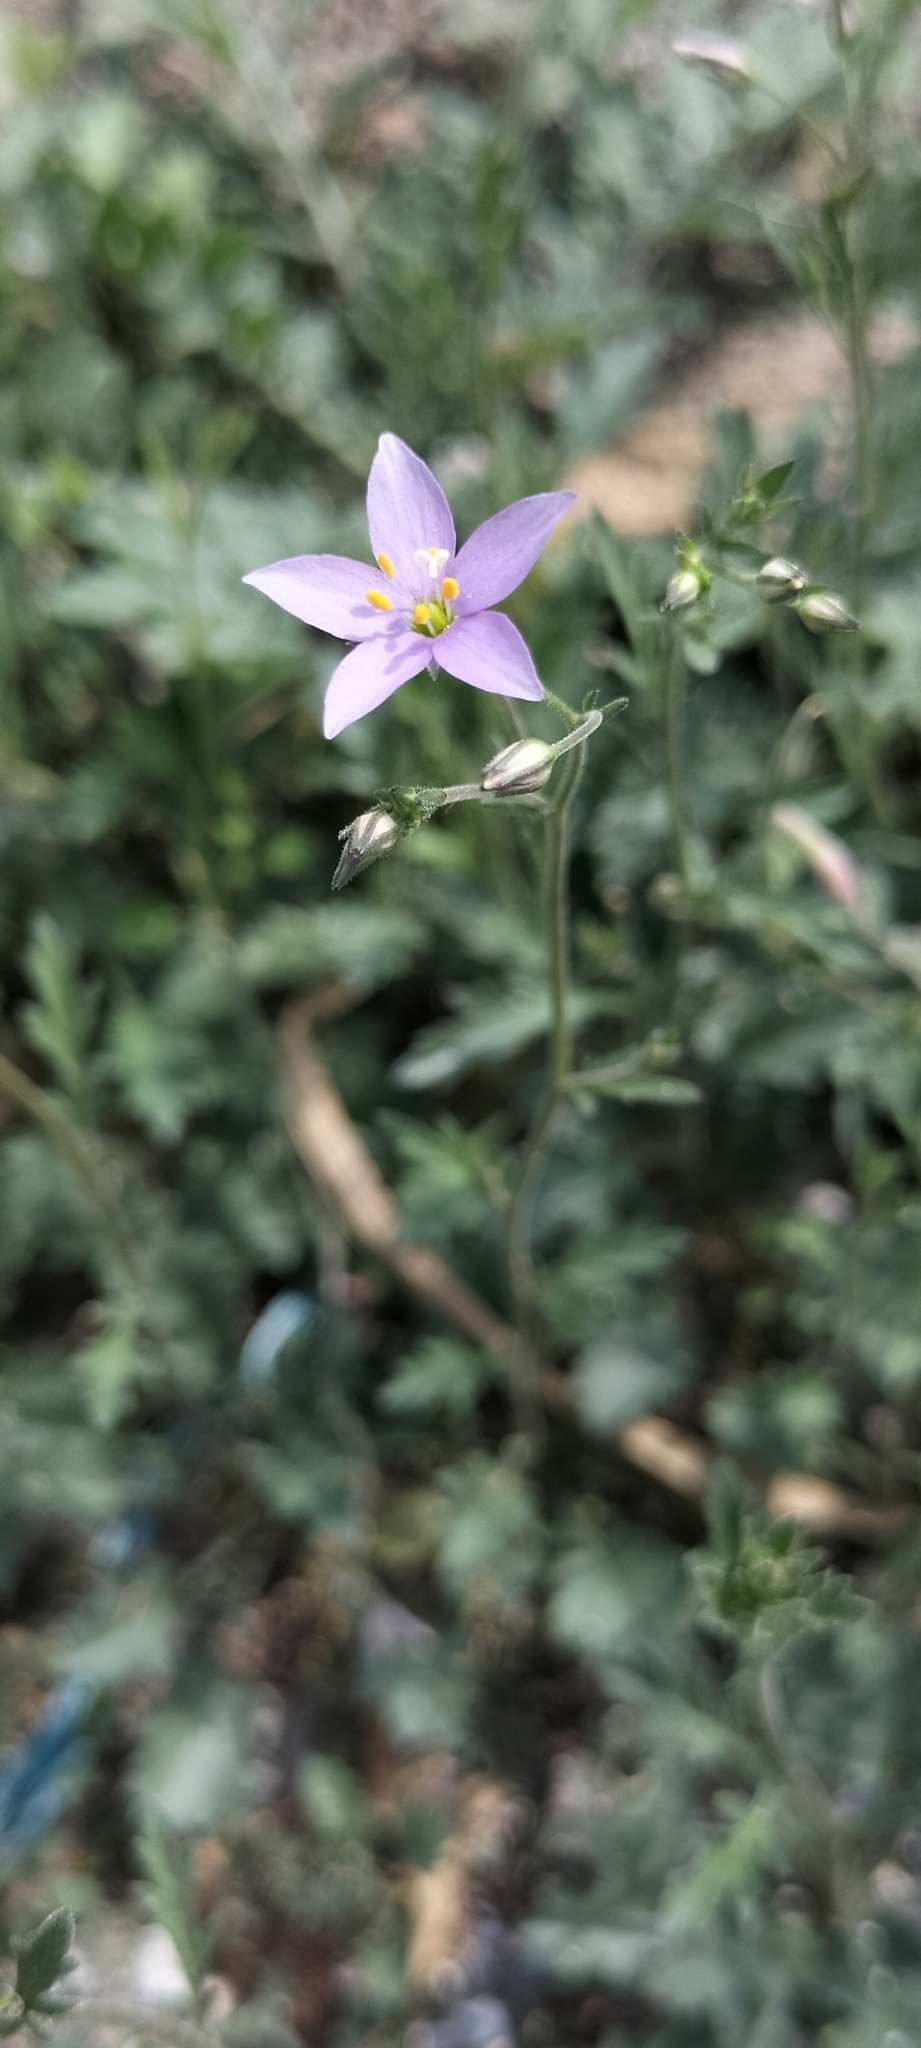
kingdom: Plantae
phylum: Tracheophyta
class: Magnoliopsida
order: Ericales
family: Polemoniaceae
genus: Giliastrum
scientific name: Giliastrum incisum
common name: Splitleaf gilia
